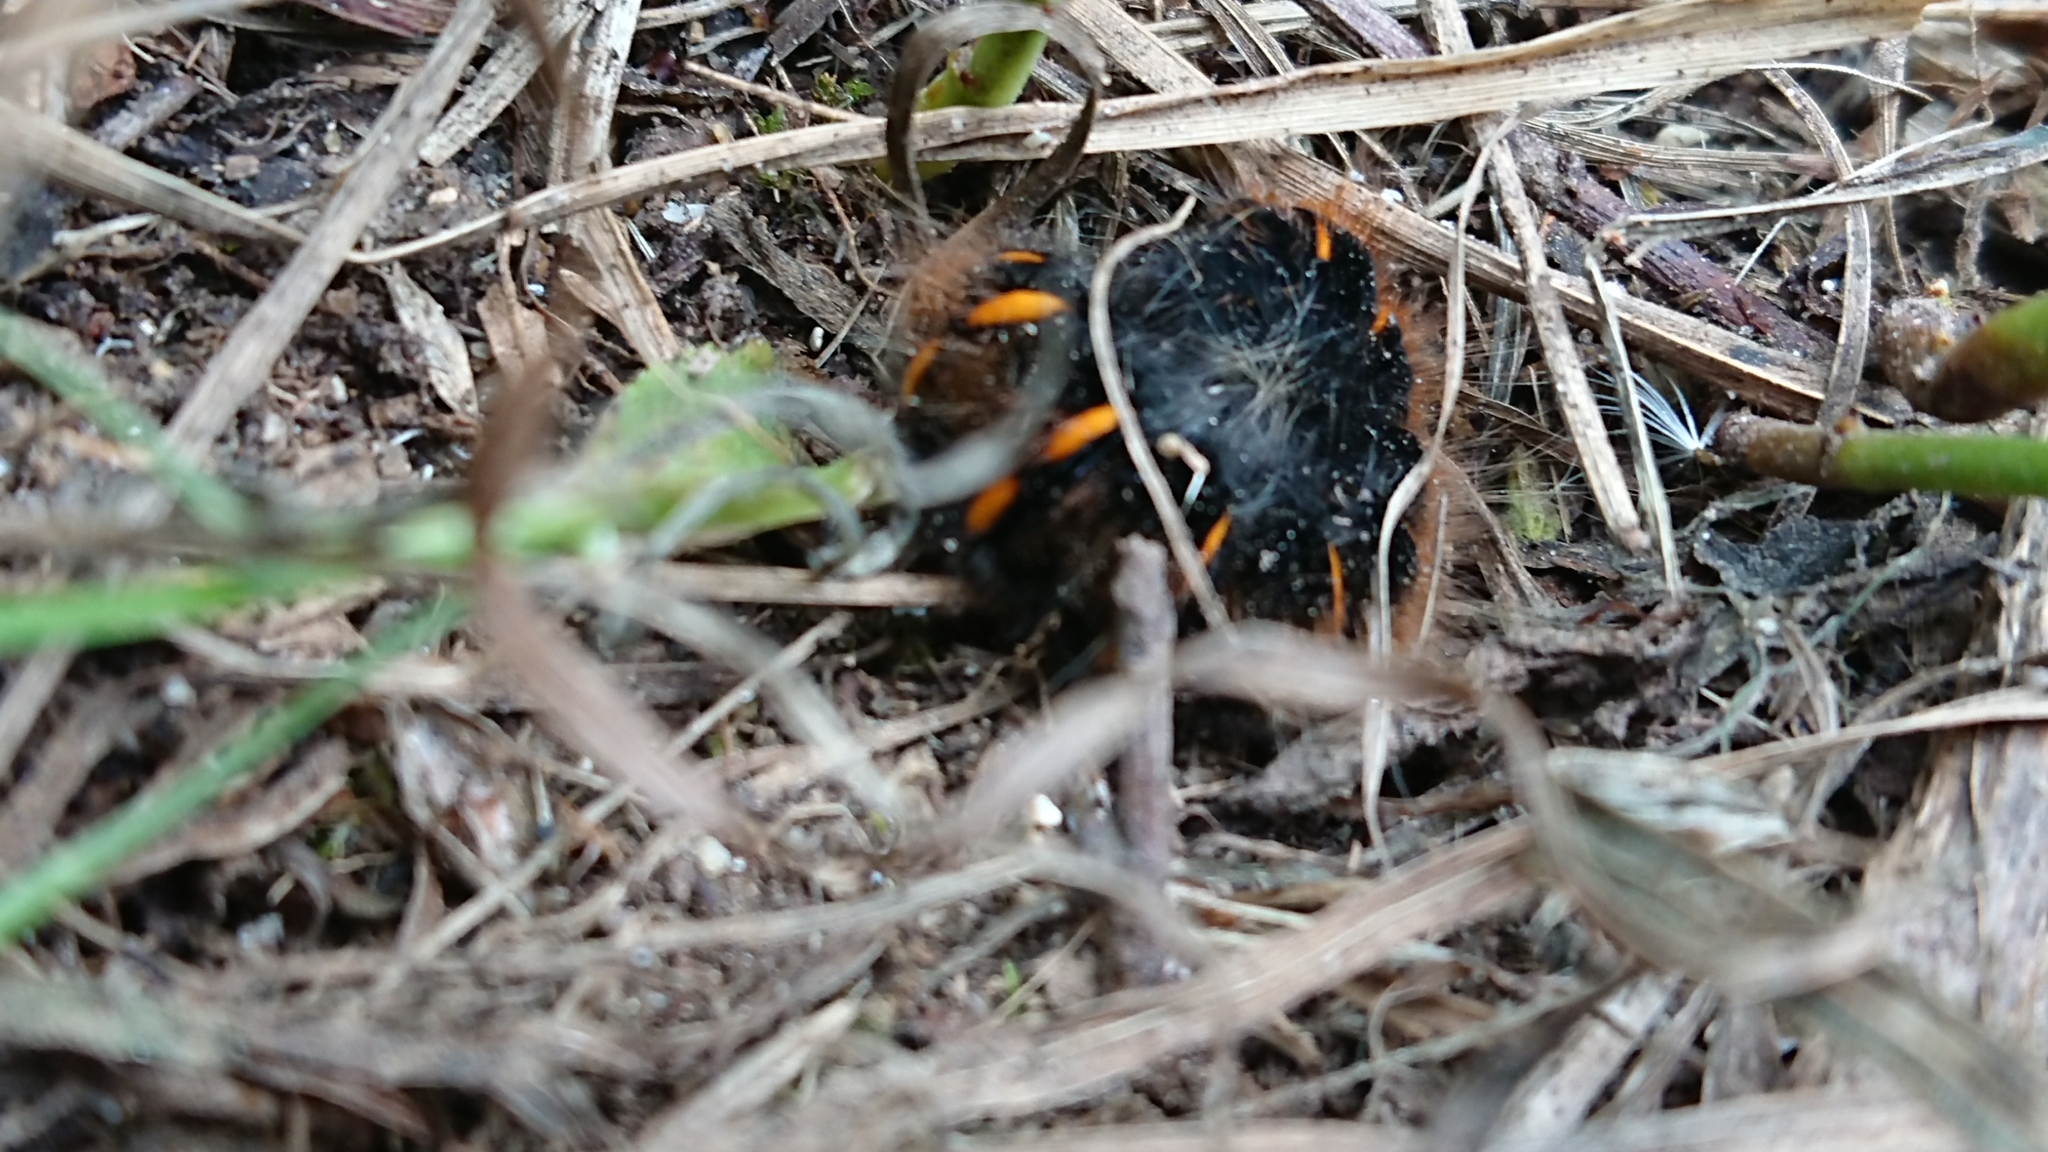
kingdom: Animalia
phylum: Arthropoda
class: Insecta
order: Lepidoptera
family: Lasiocampidae
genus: Macrothylacia
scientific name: Macrothylacia rubi
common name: Fox moth
